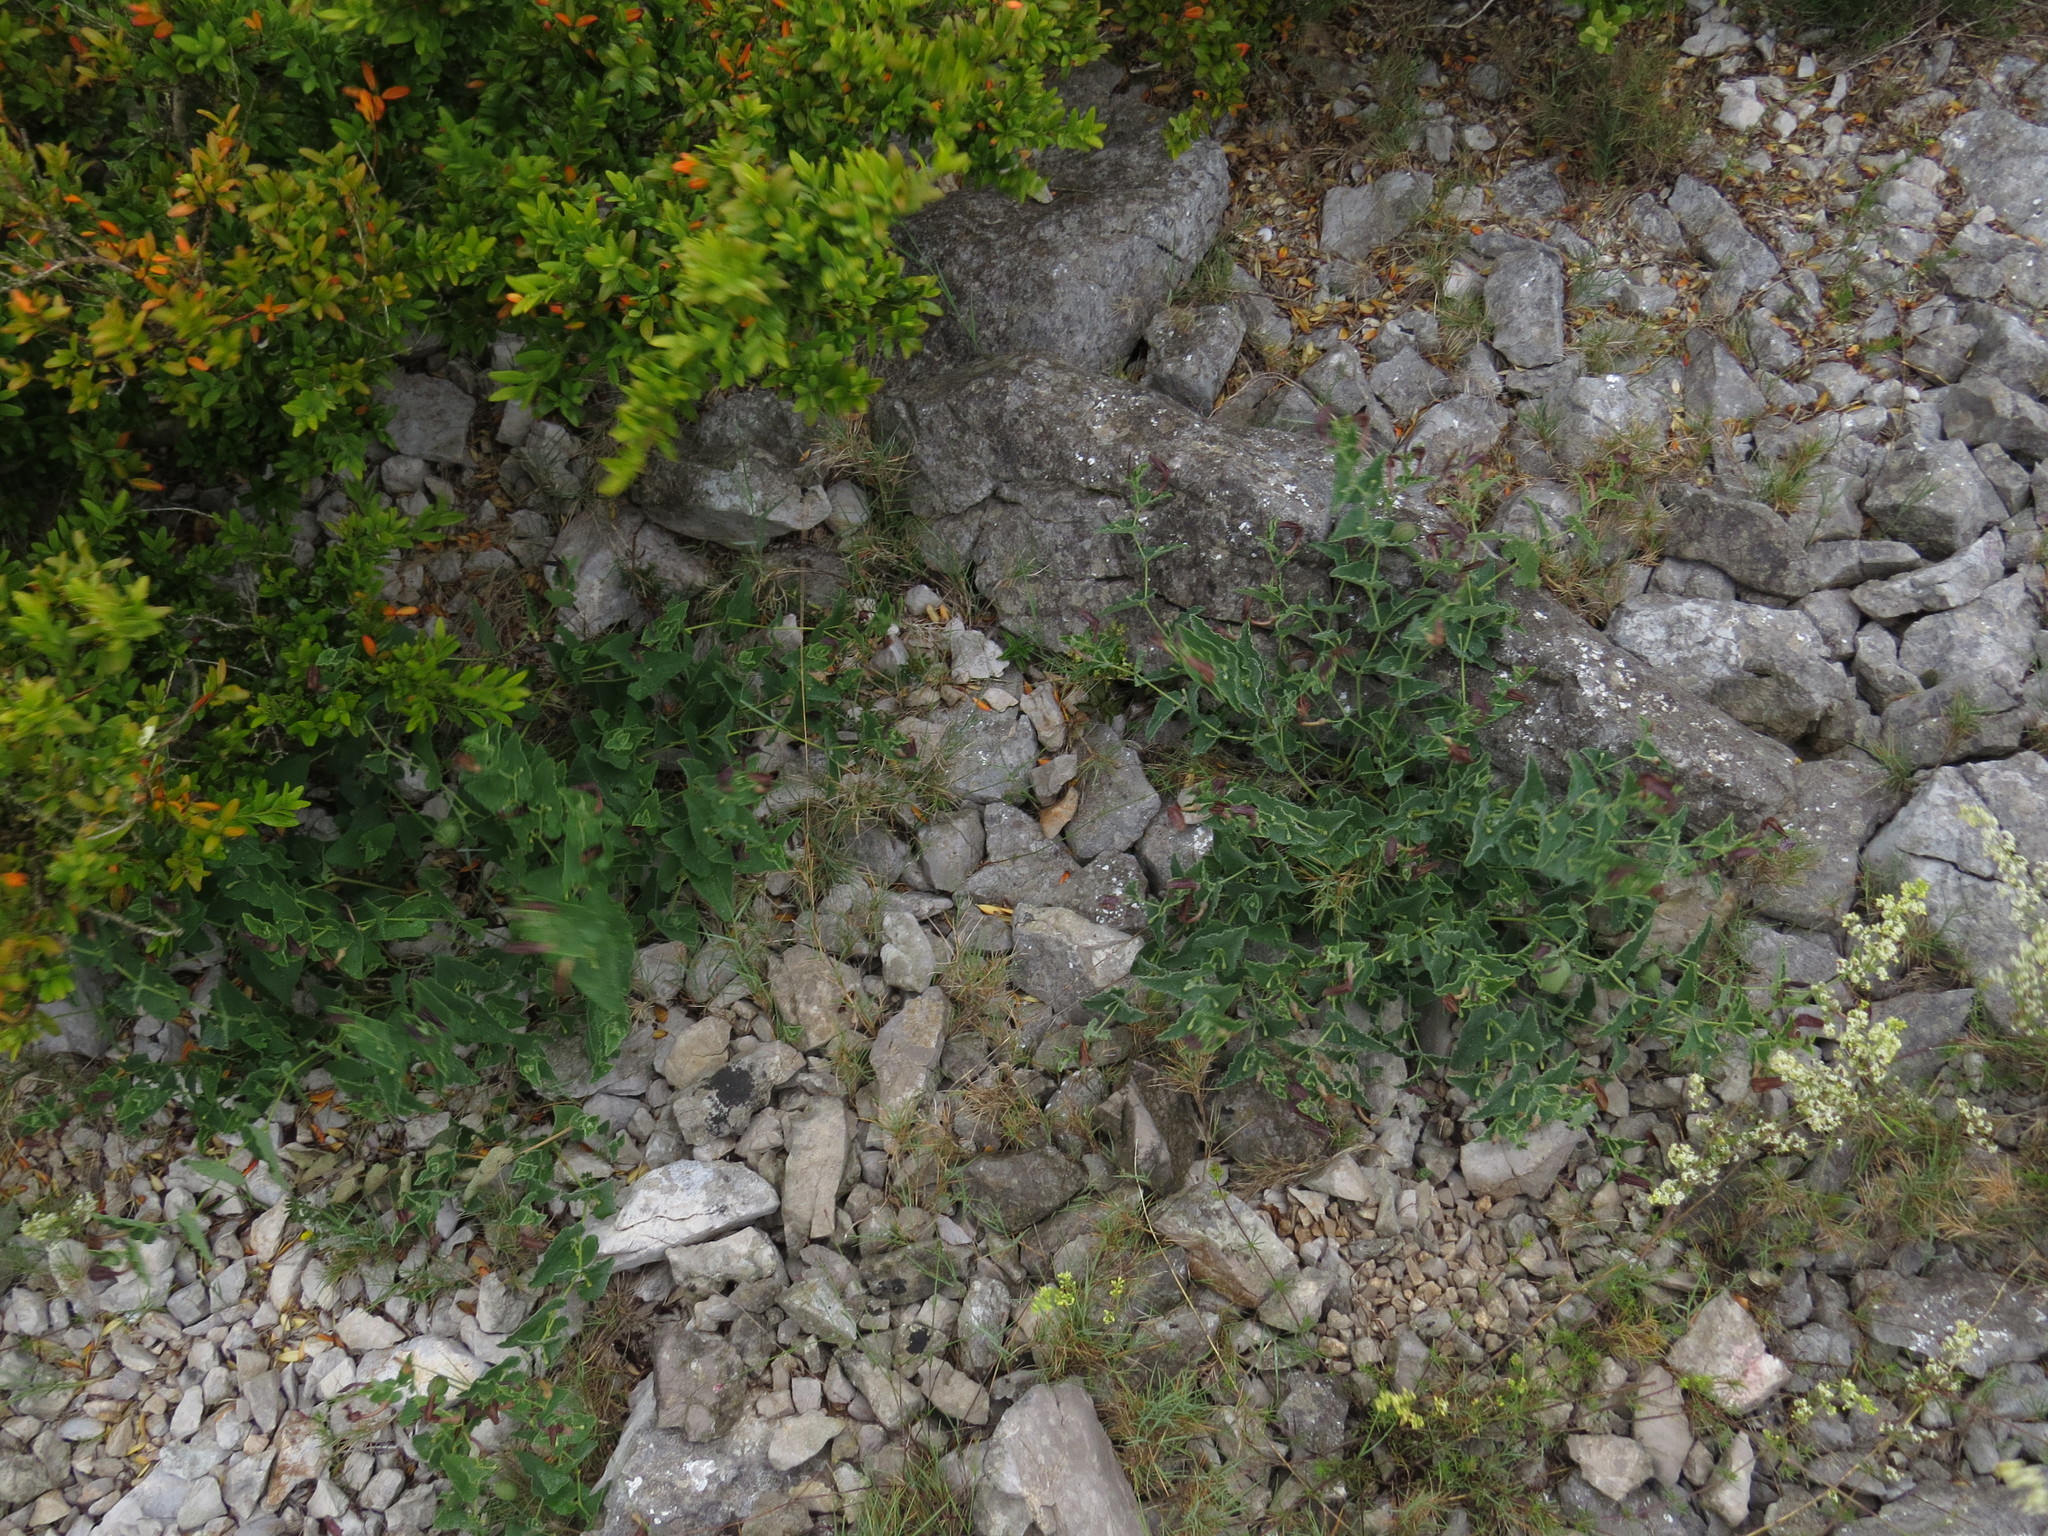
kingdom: Plantae
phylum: Tracheophyta
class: Magnoliopsida
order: Piperales
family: Aristolochiaceae
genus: Aristolochia
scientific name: Aristolochia pistolochia
